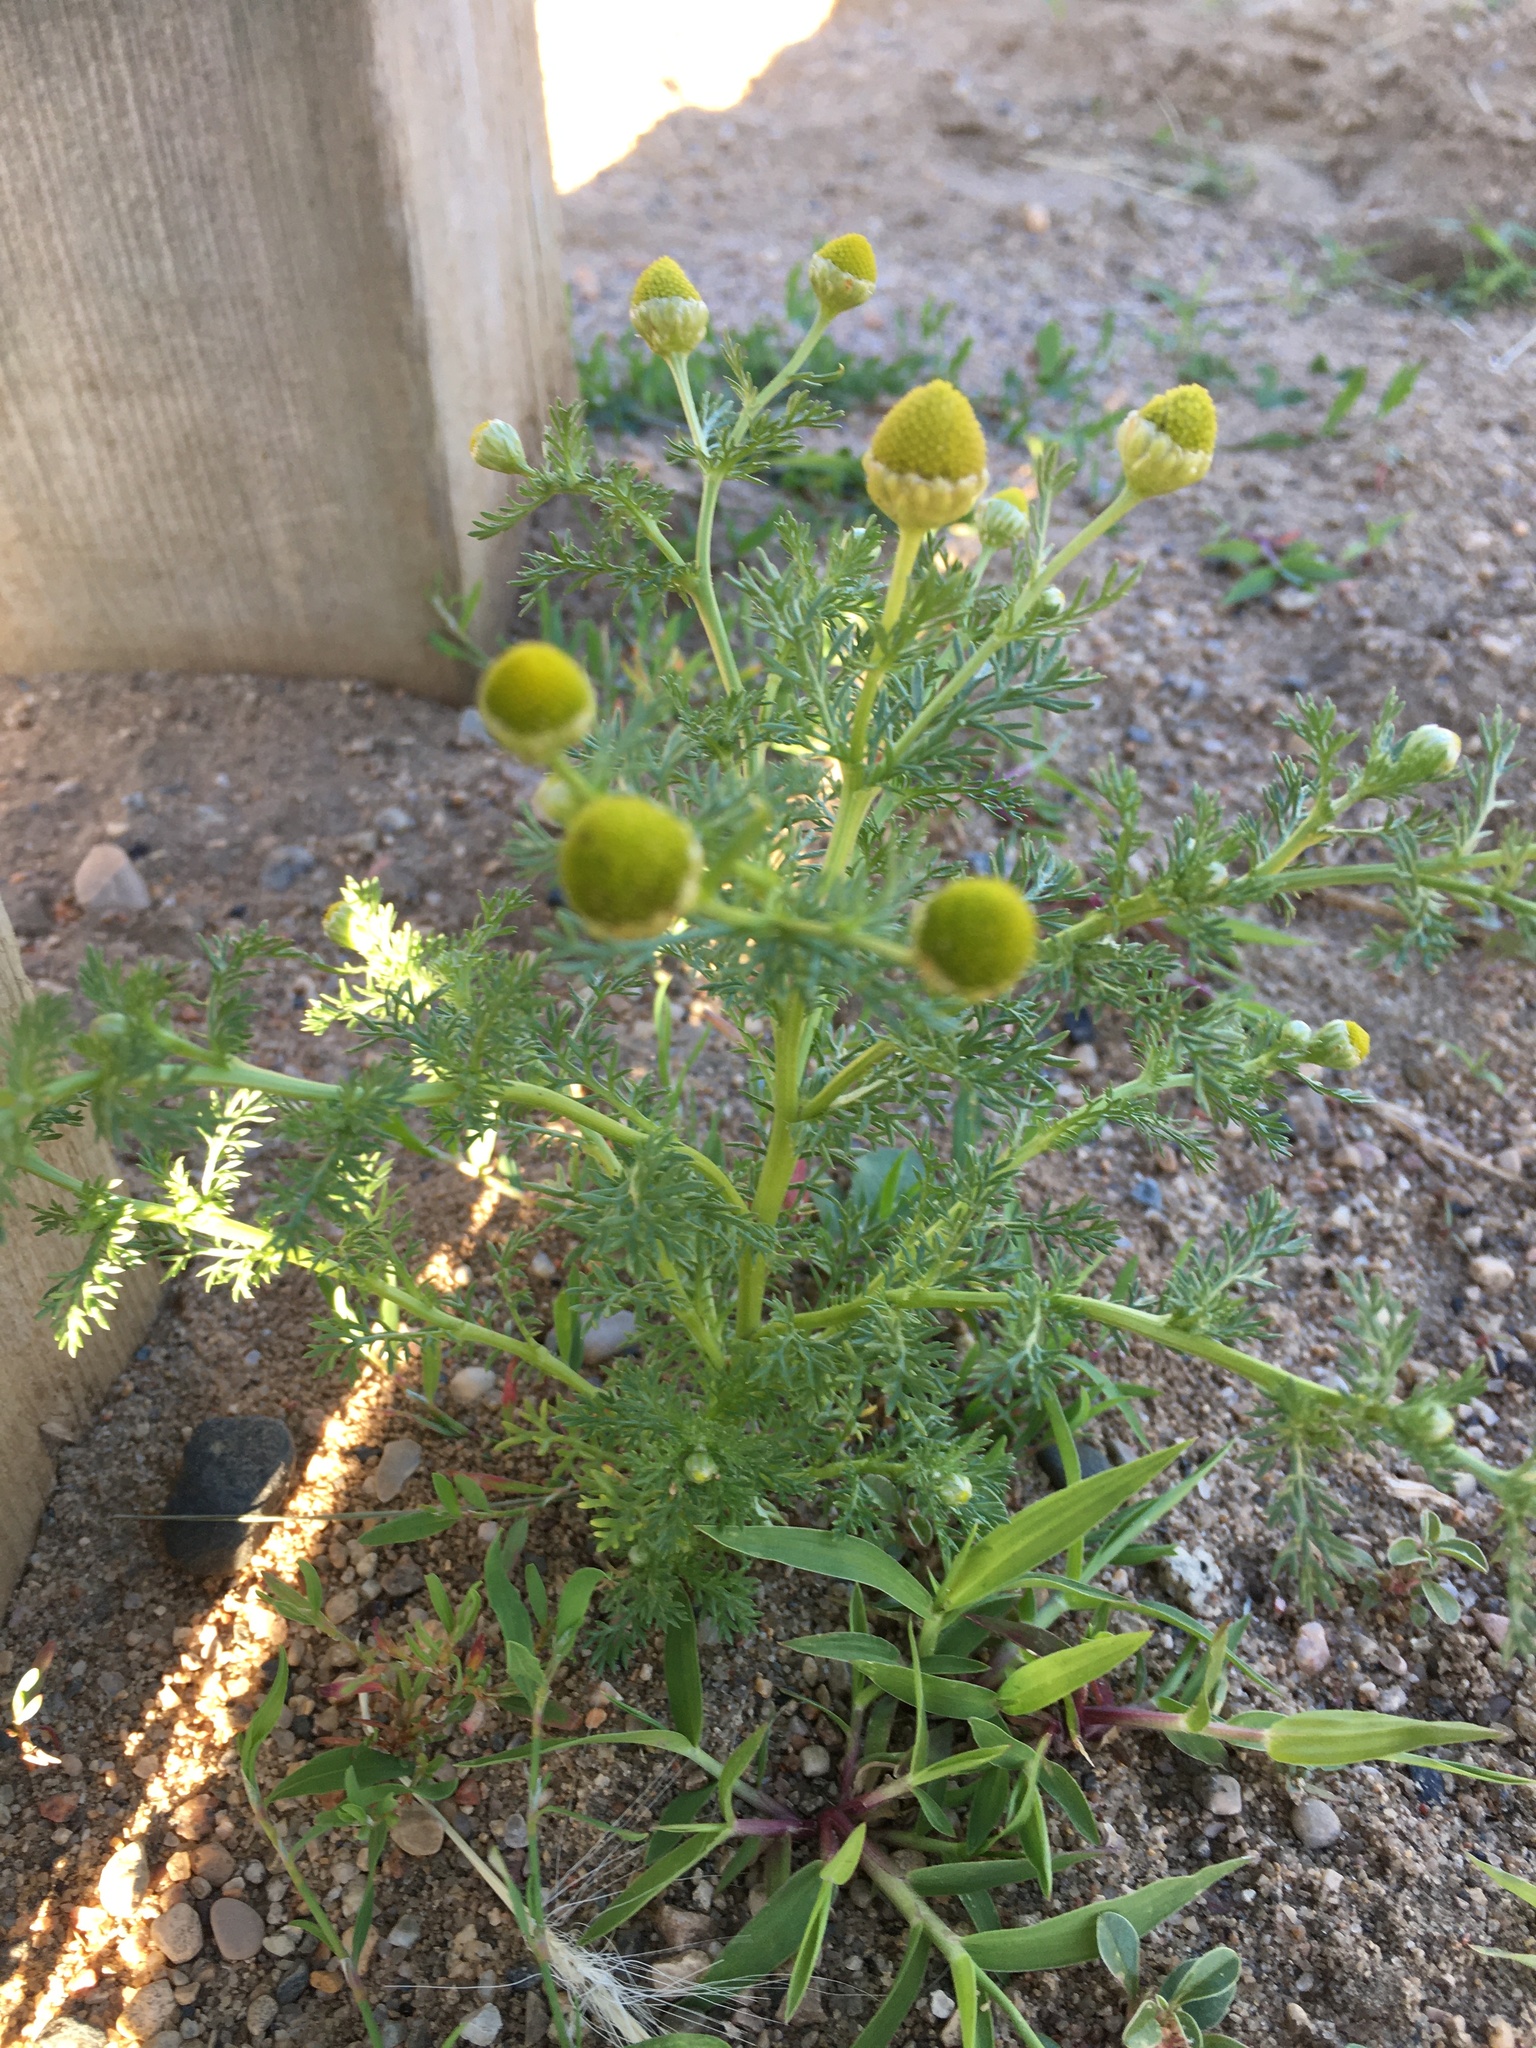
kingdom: Plantae
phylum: Tracheophyta
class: Magnoliopsida
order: Asterales
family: Asteraceae
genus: Matricaria
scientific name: Matricaria discoidea
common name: Disc mayweed
